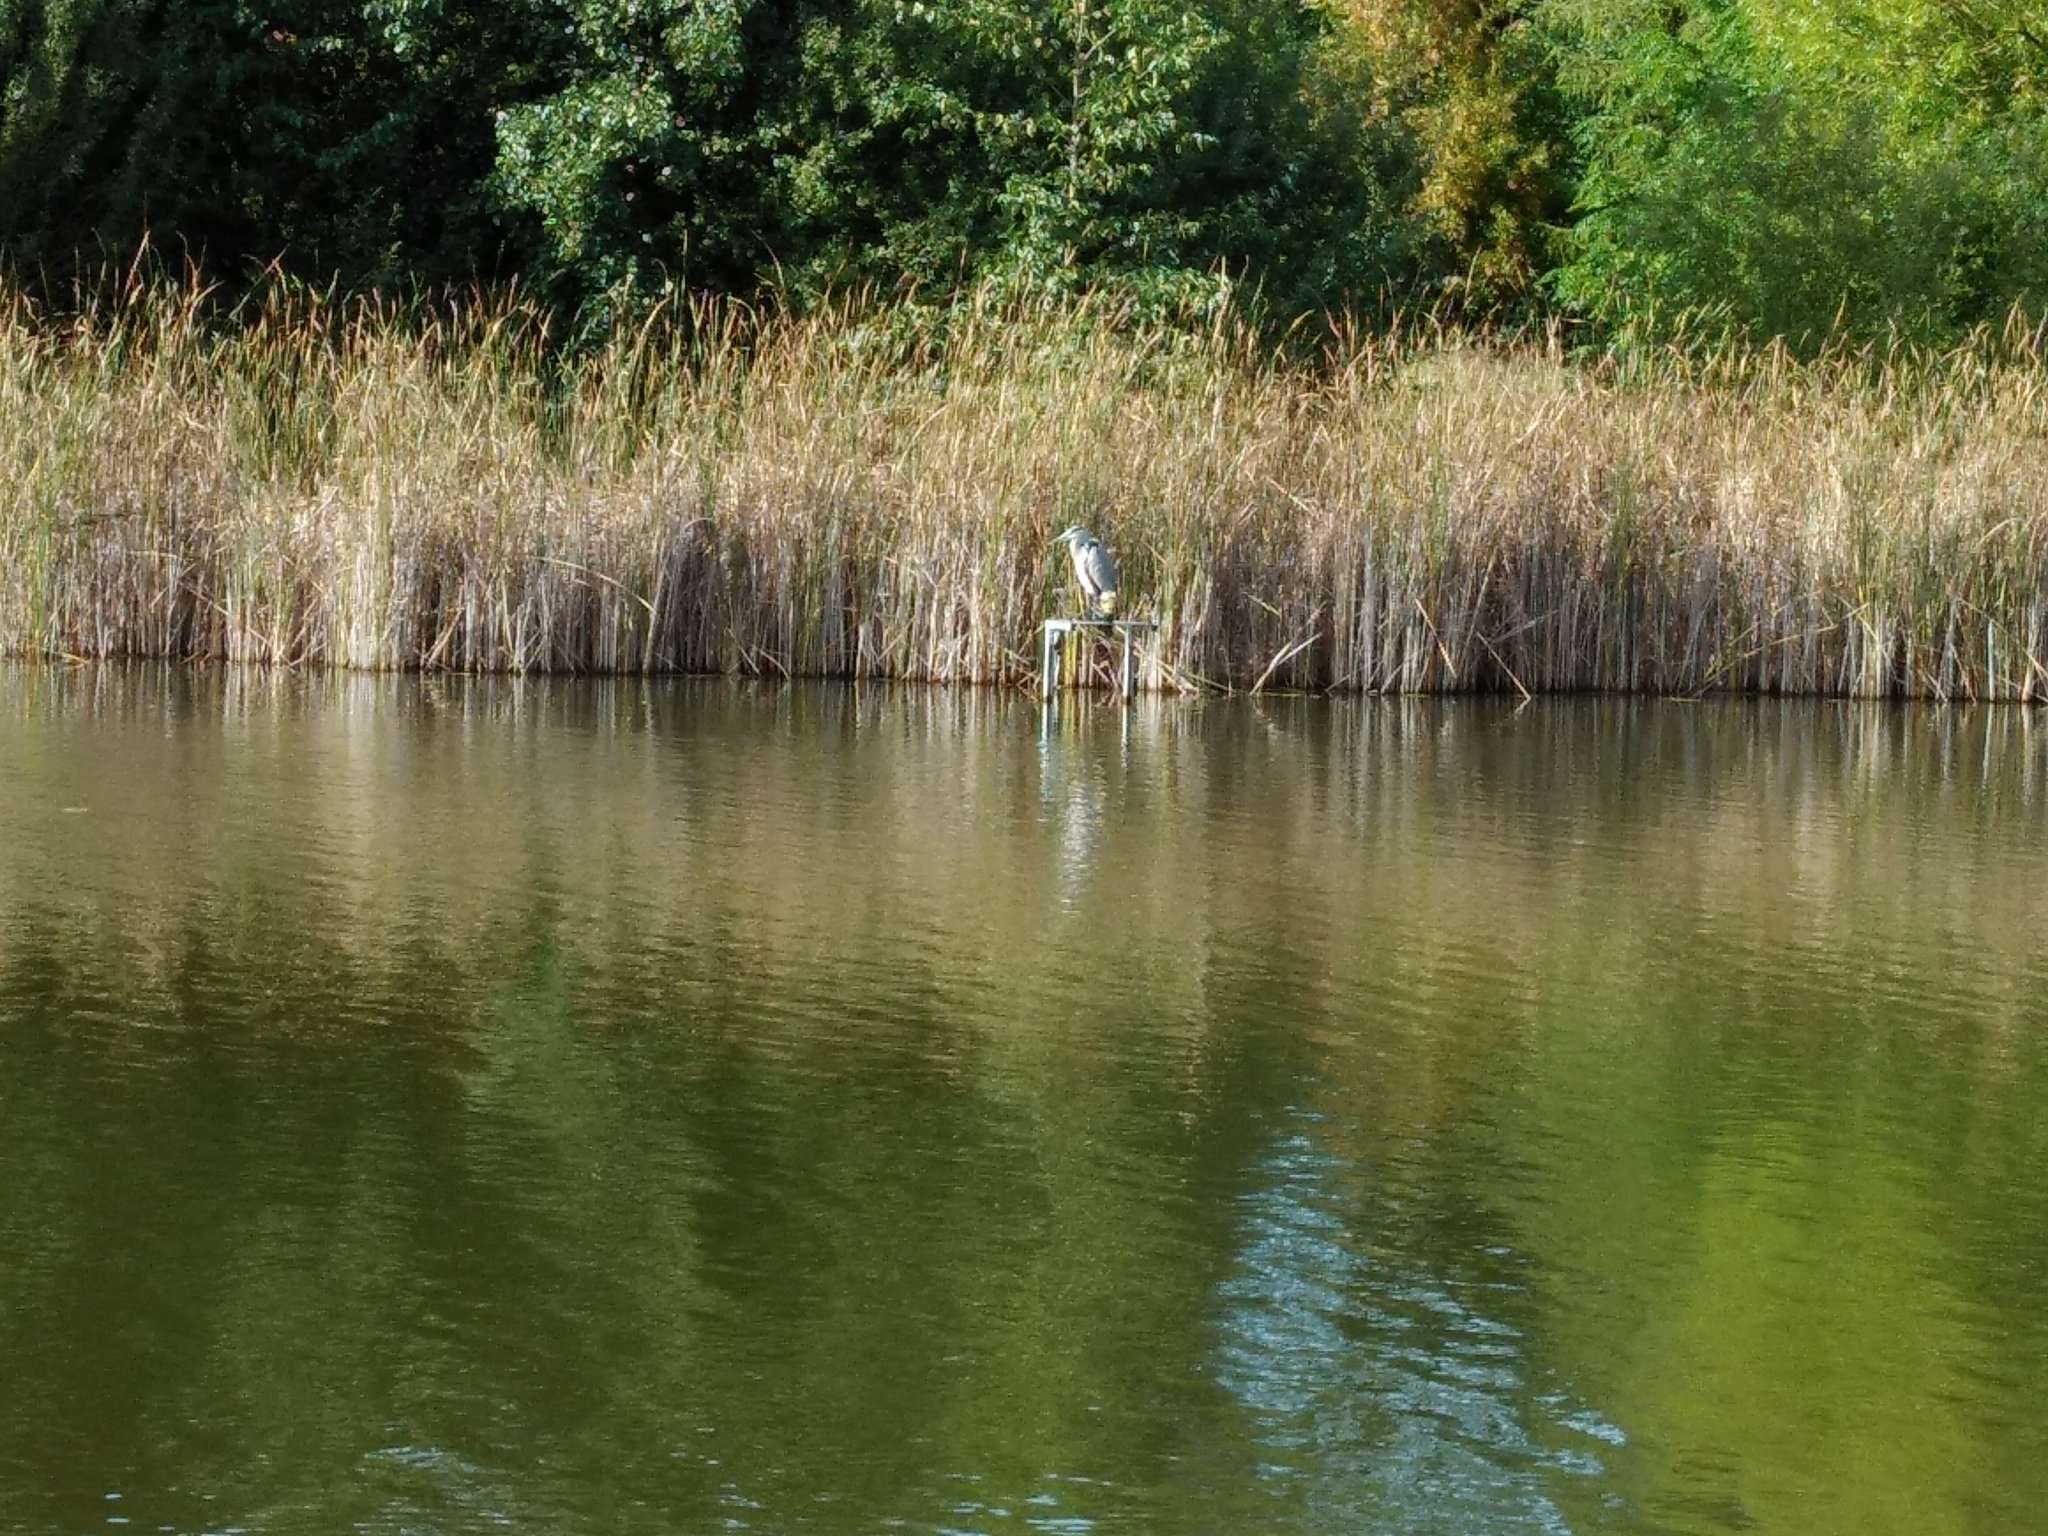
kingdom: Animalia
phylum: Chordata
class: Aves
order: Pelecaniformes
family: Ardeidae
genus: Ardea
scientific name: Ardea cinerea
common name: Grey heron
